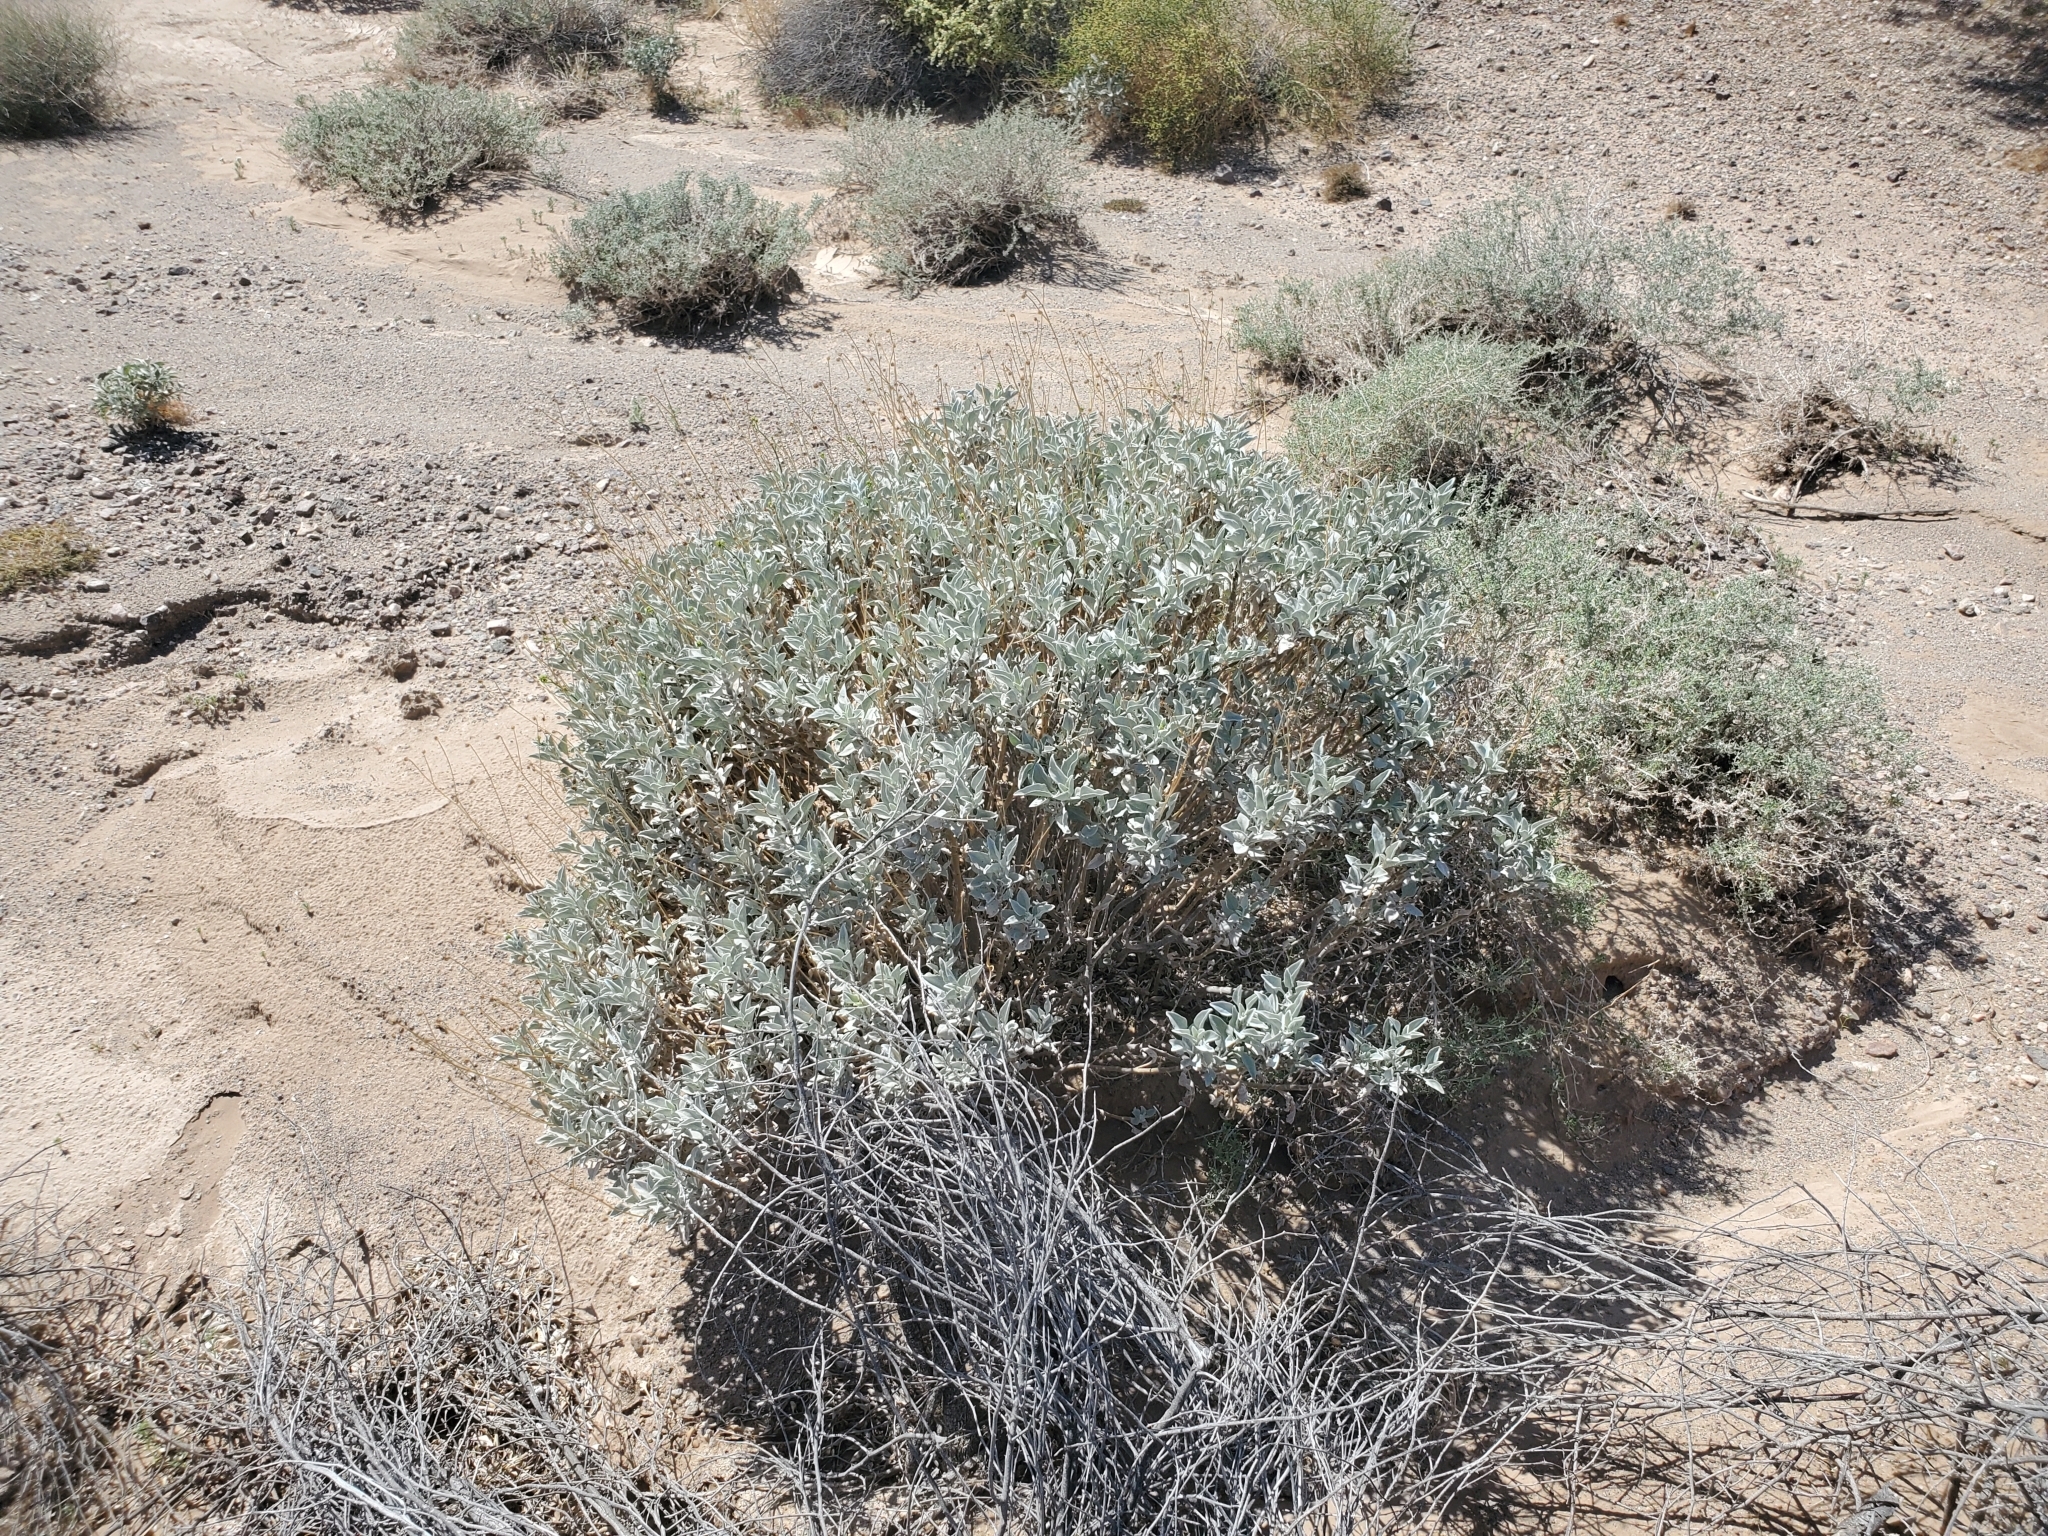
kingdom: Plantae
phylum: Tracheophyta
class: Magnoliopsida
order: Asterales
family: Asteraceae
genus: Encelia
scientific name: Encelia farinosa
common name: Brittlebush
